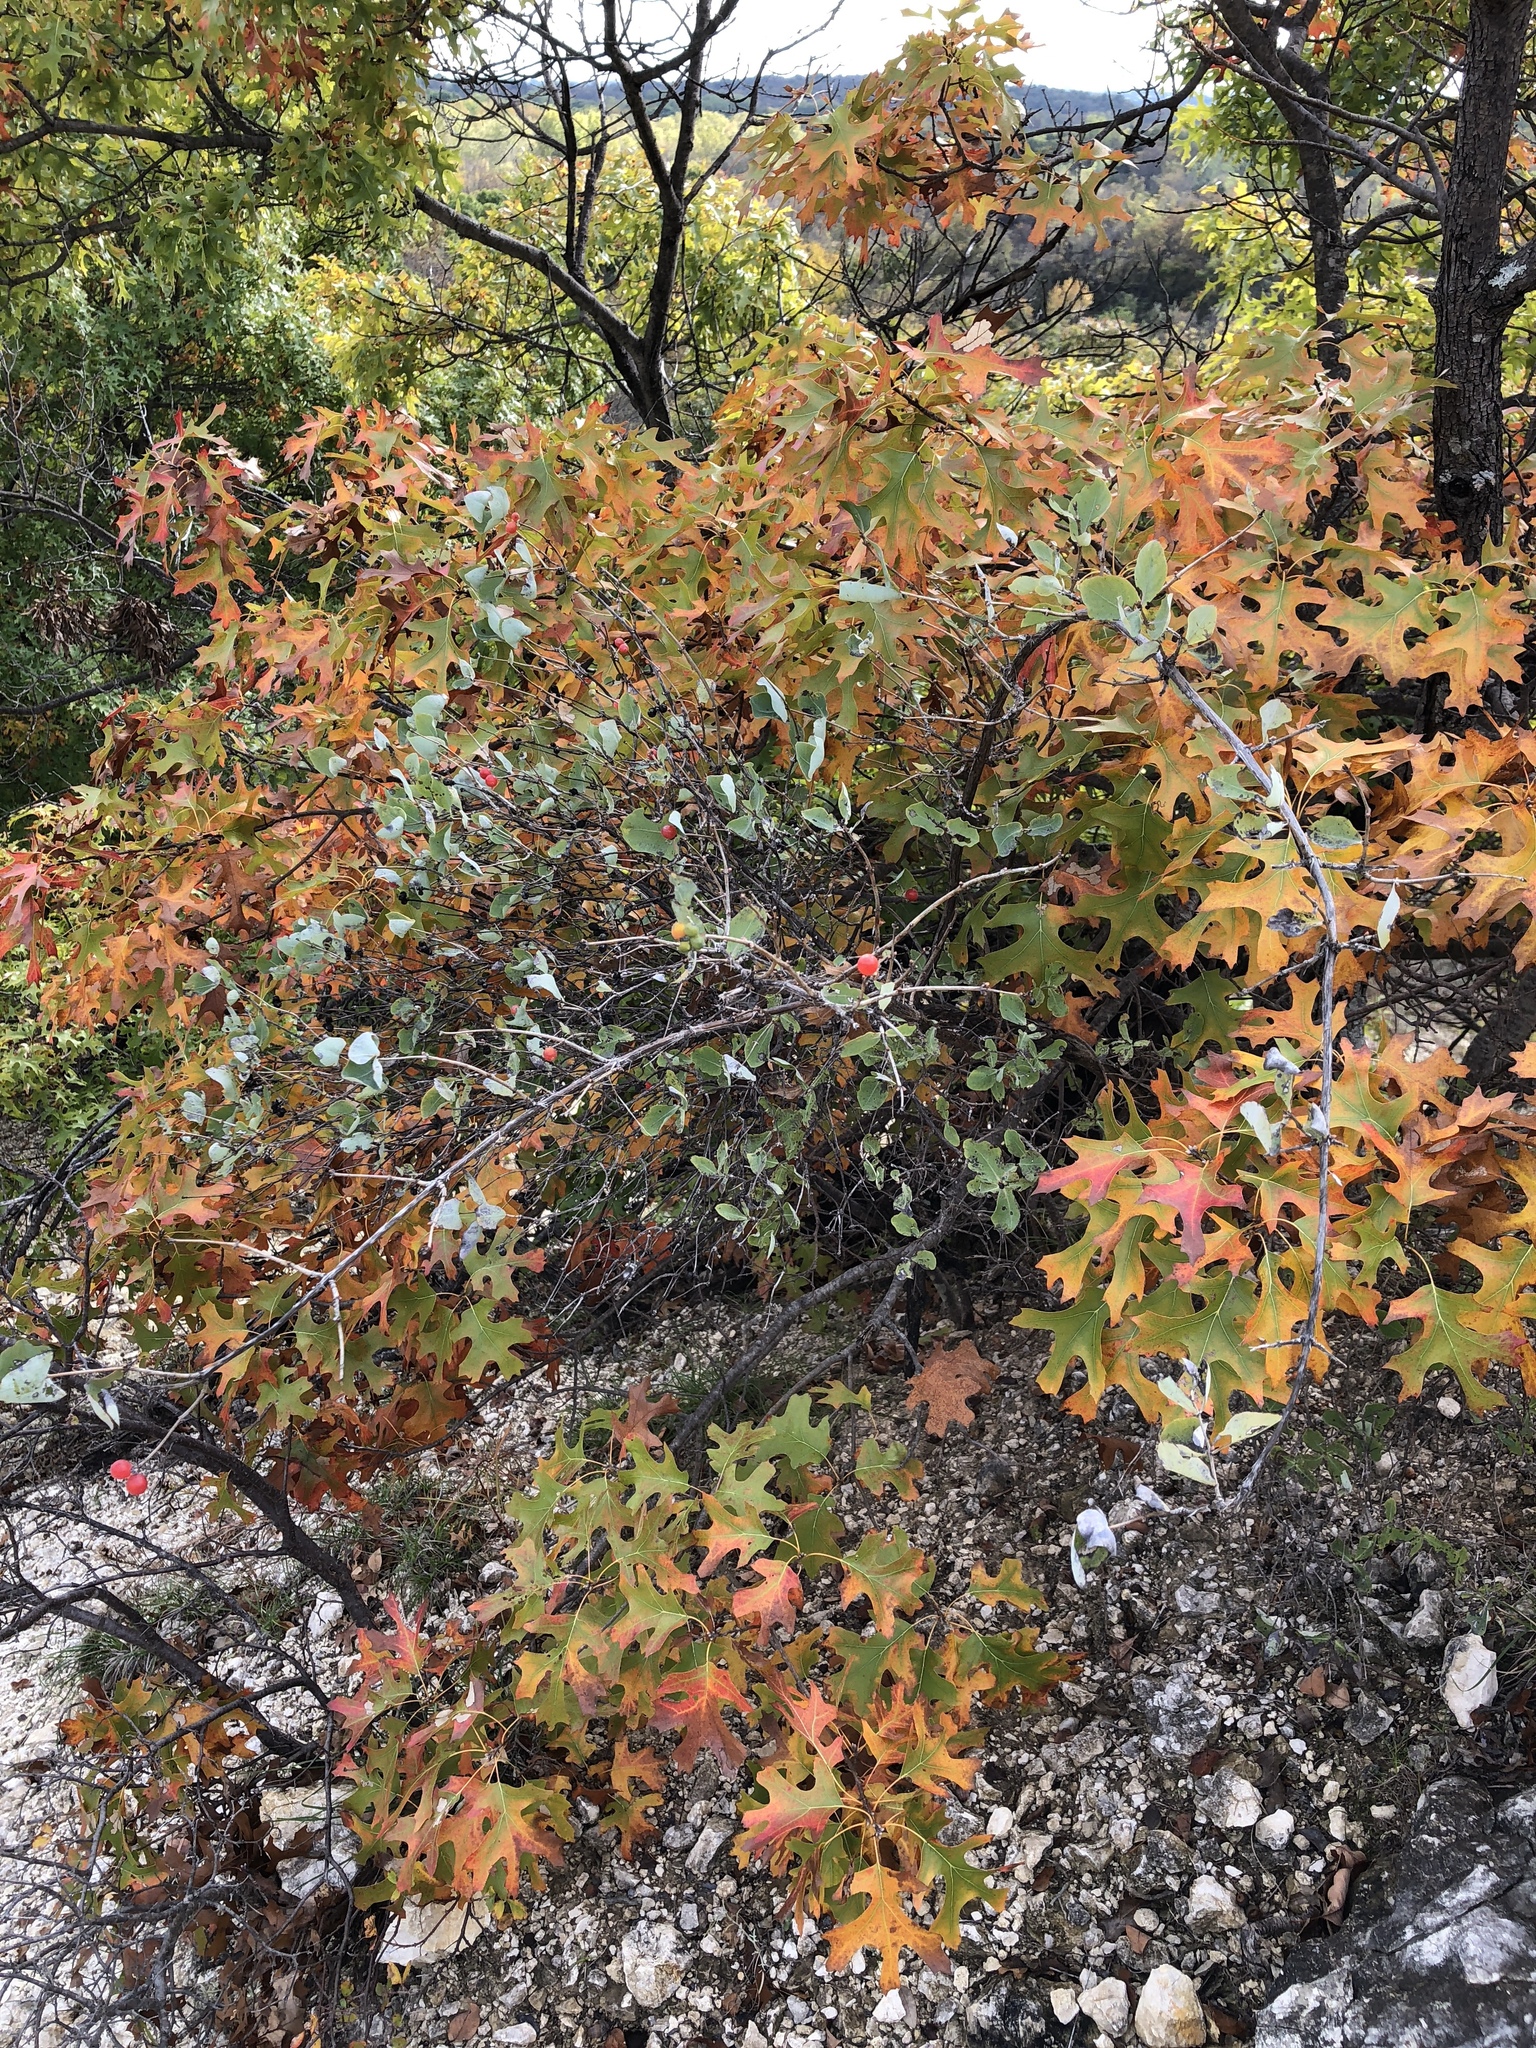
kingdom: Plantae
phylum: Tracheophyta
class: Magnoliopsida
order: Dipsacales
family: Caprifoliaceae
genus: Lonicera
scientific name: Lonicera albiflora
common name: White honeysuckle
